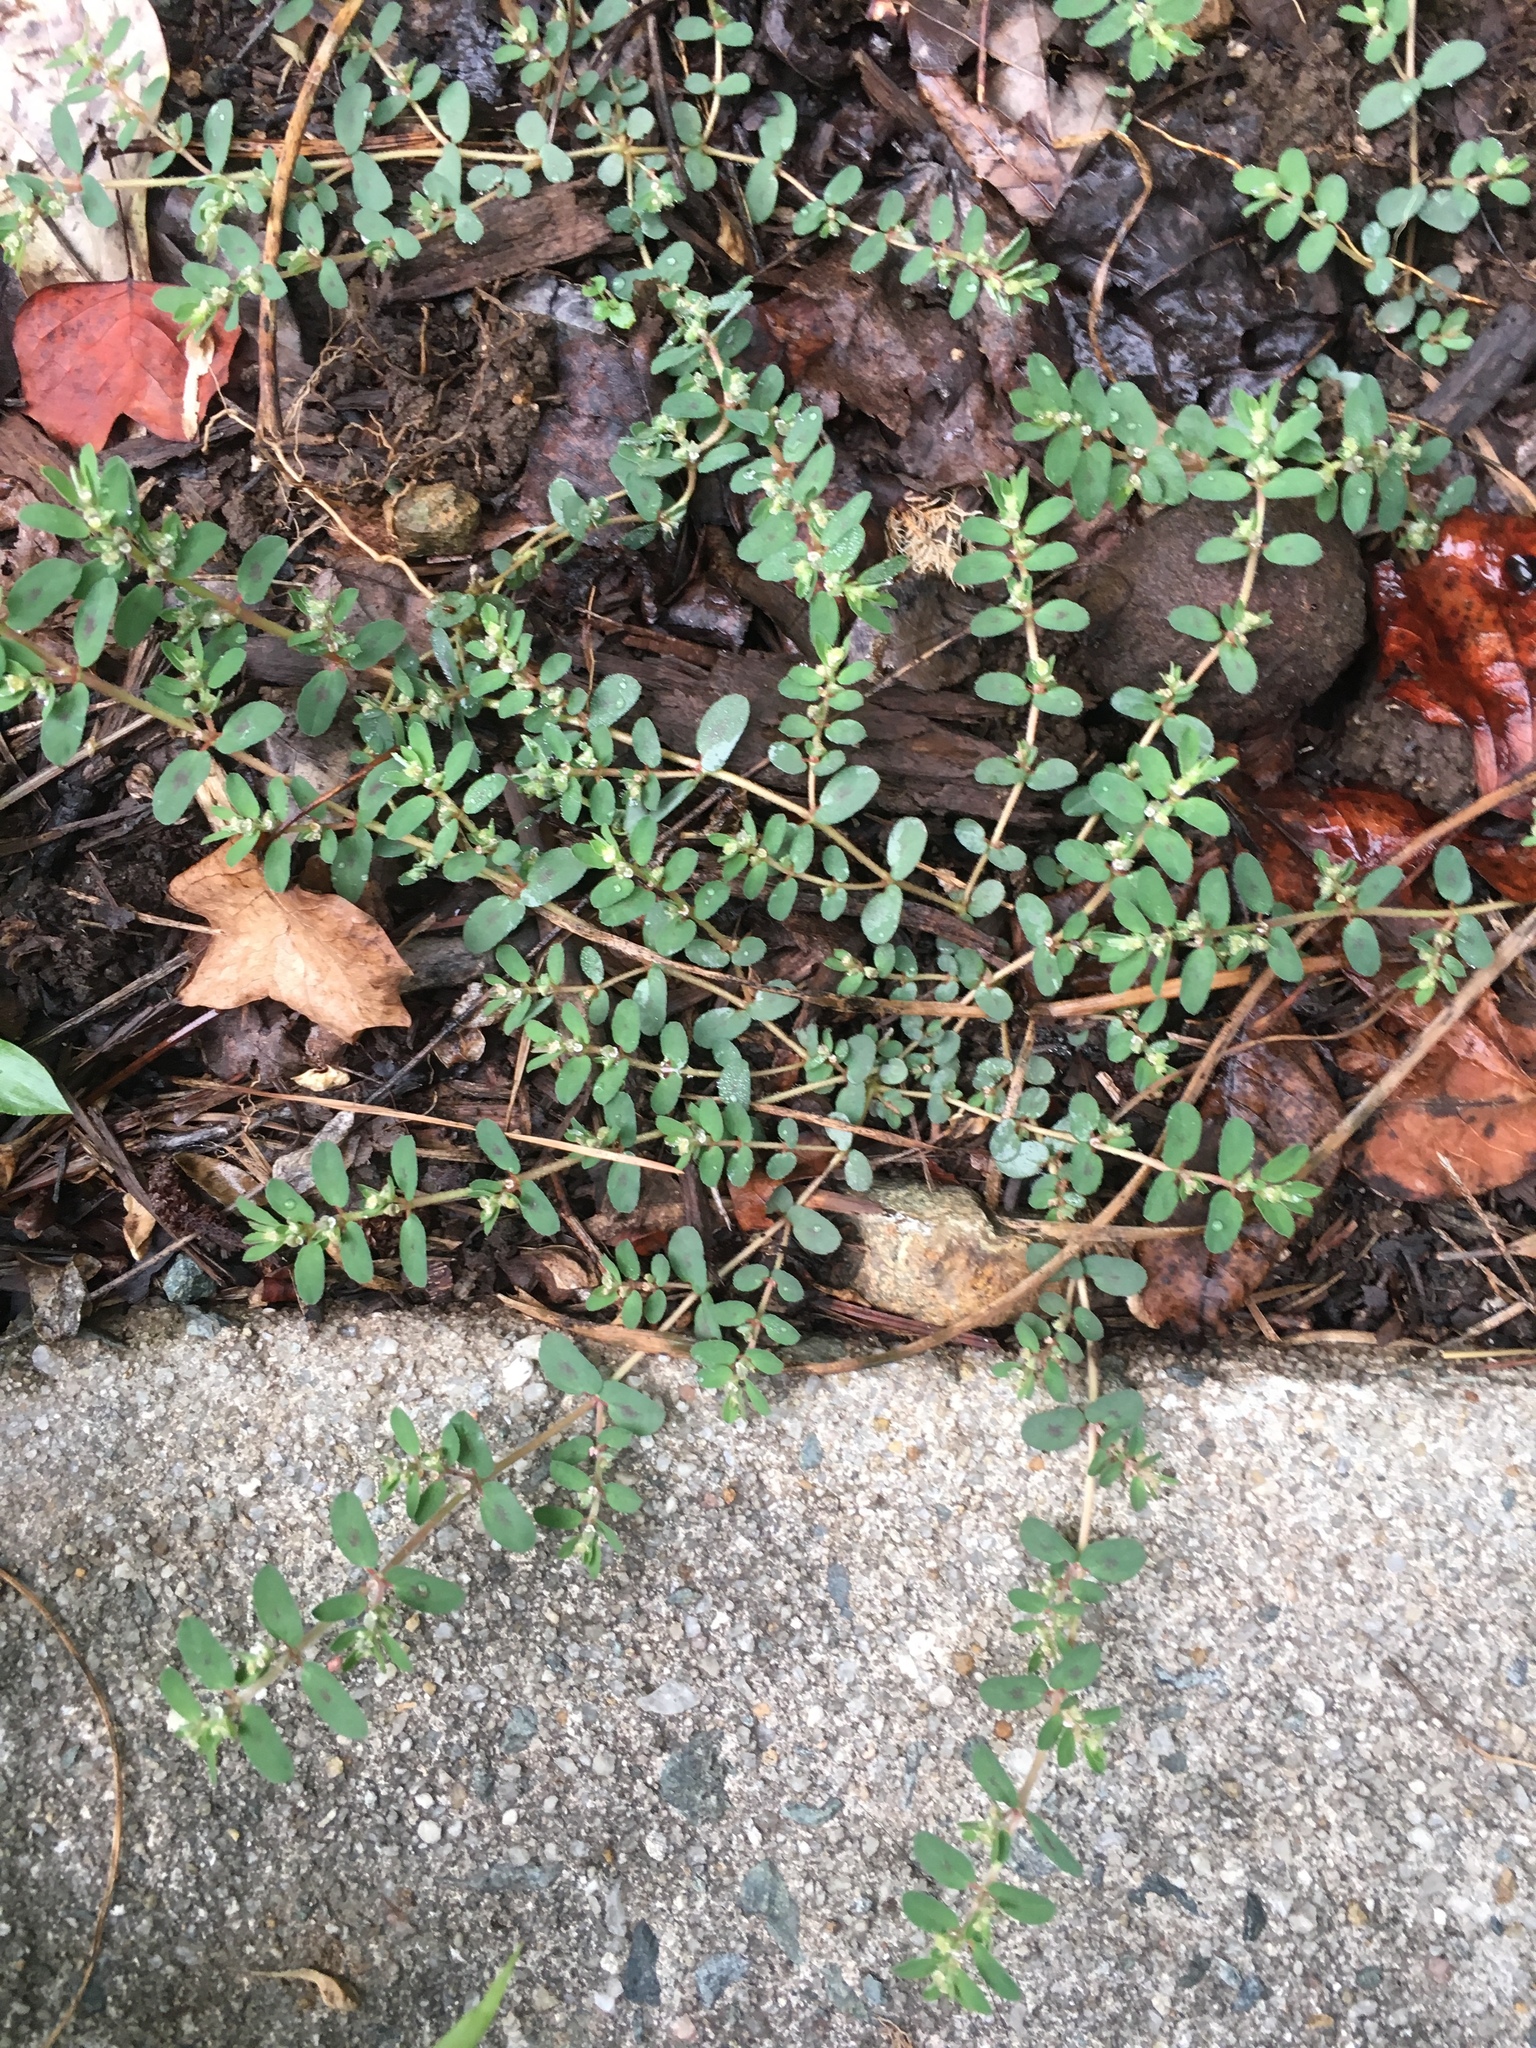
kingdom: Plantae
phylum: Tracheophyta
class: Magnoliopsida
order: Malpighiales
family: Euphorbiaceae
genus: Euphorbia
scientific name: Euphorbia maculata
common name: Spotted spurge
